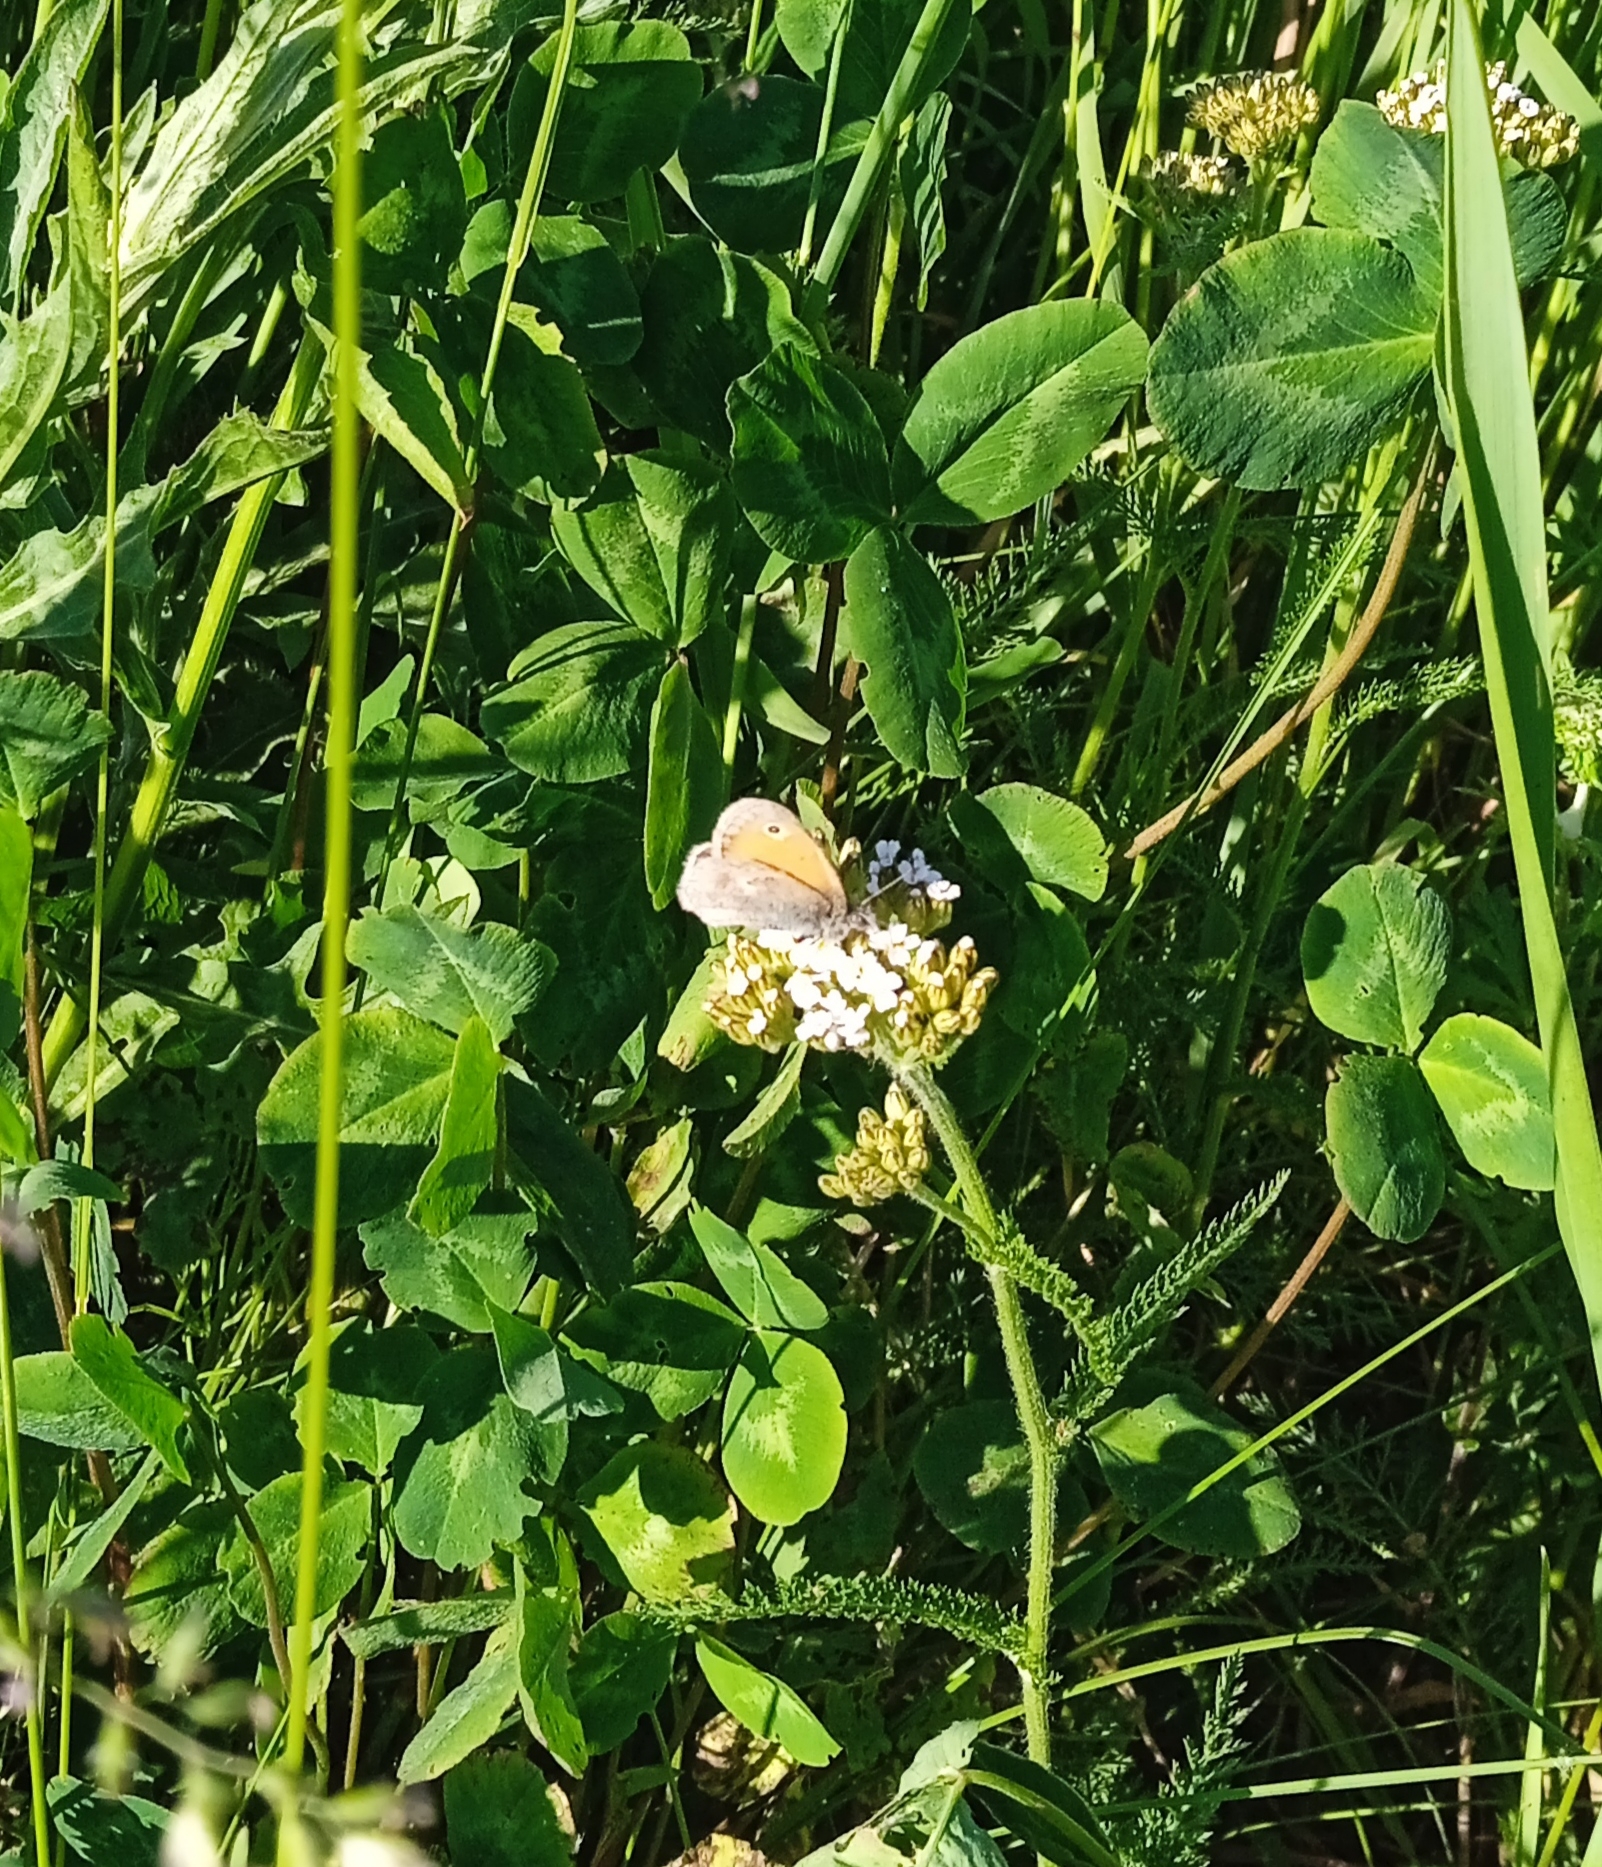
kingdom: Animalia
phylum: Arthropoda
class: Insecta
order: Lepidoptera
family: Nymphalidae
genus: Coenonympha
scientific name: Coenonympha pamphilus
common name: Small heath
